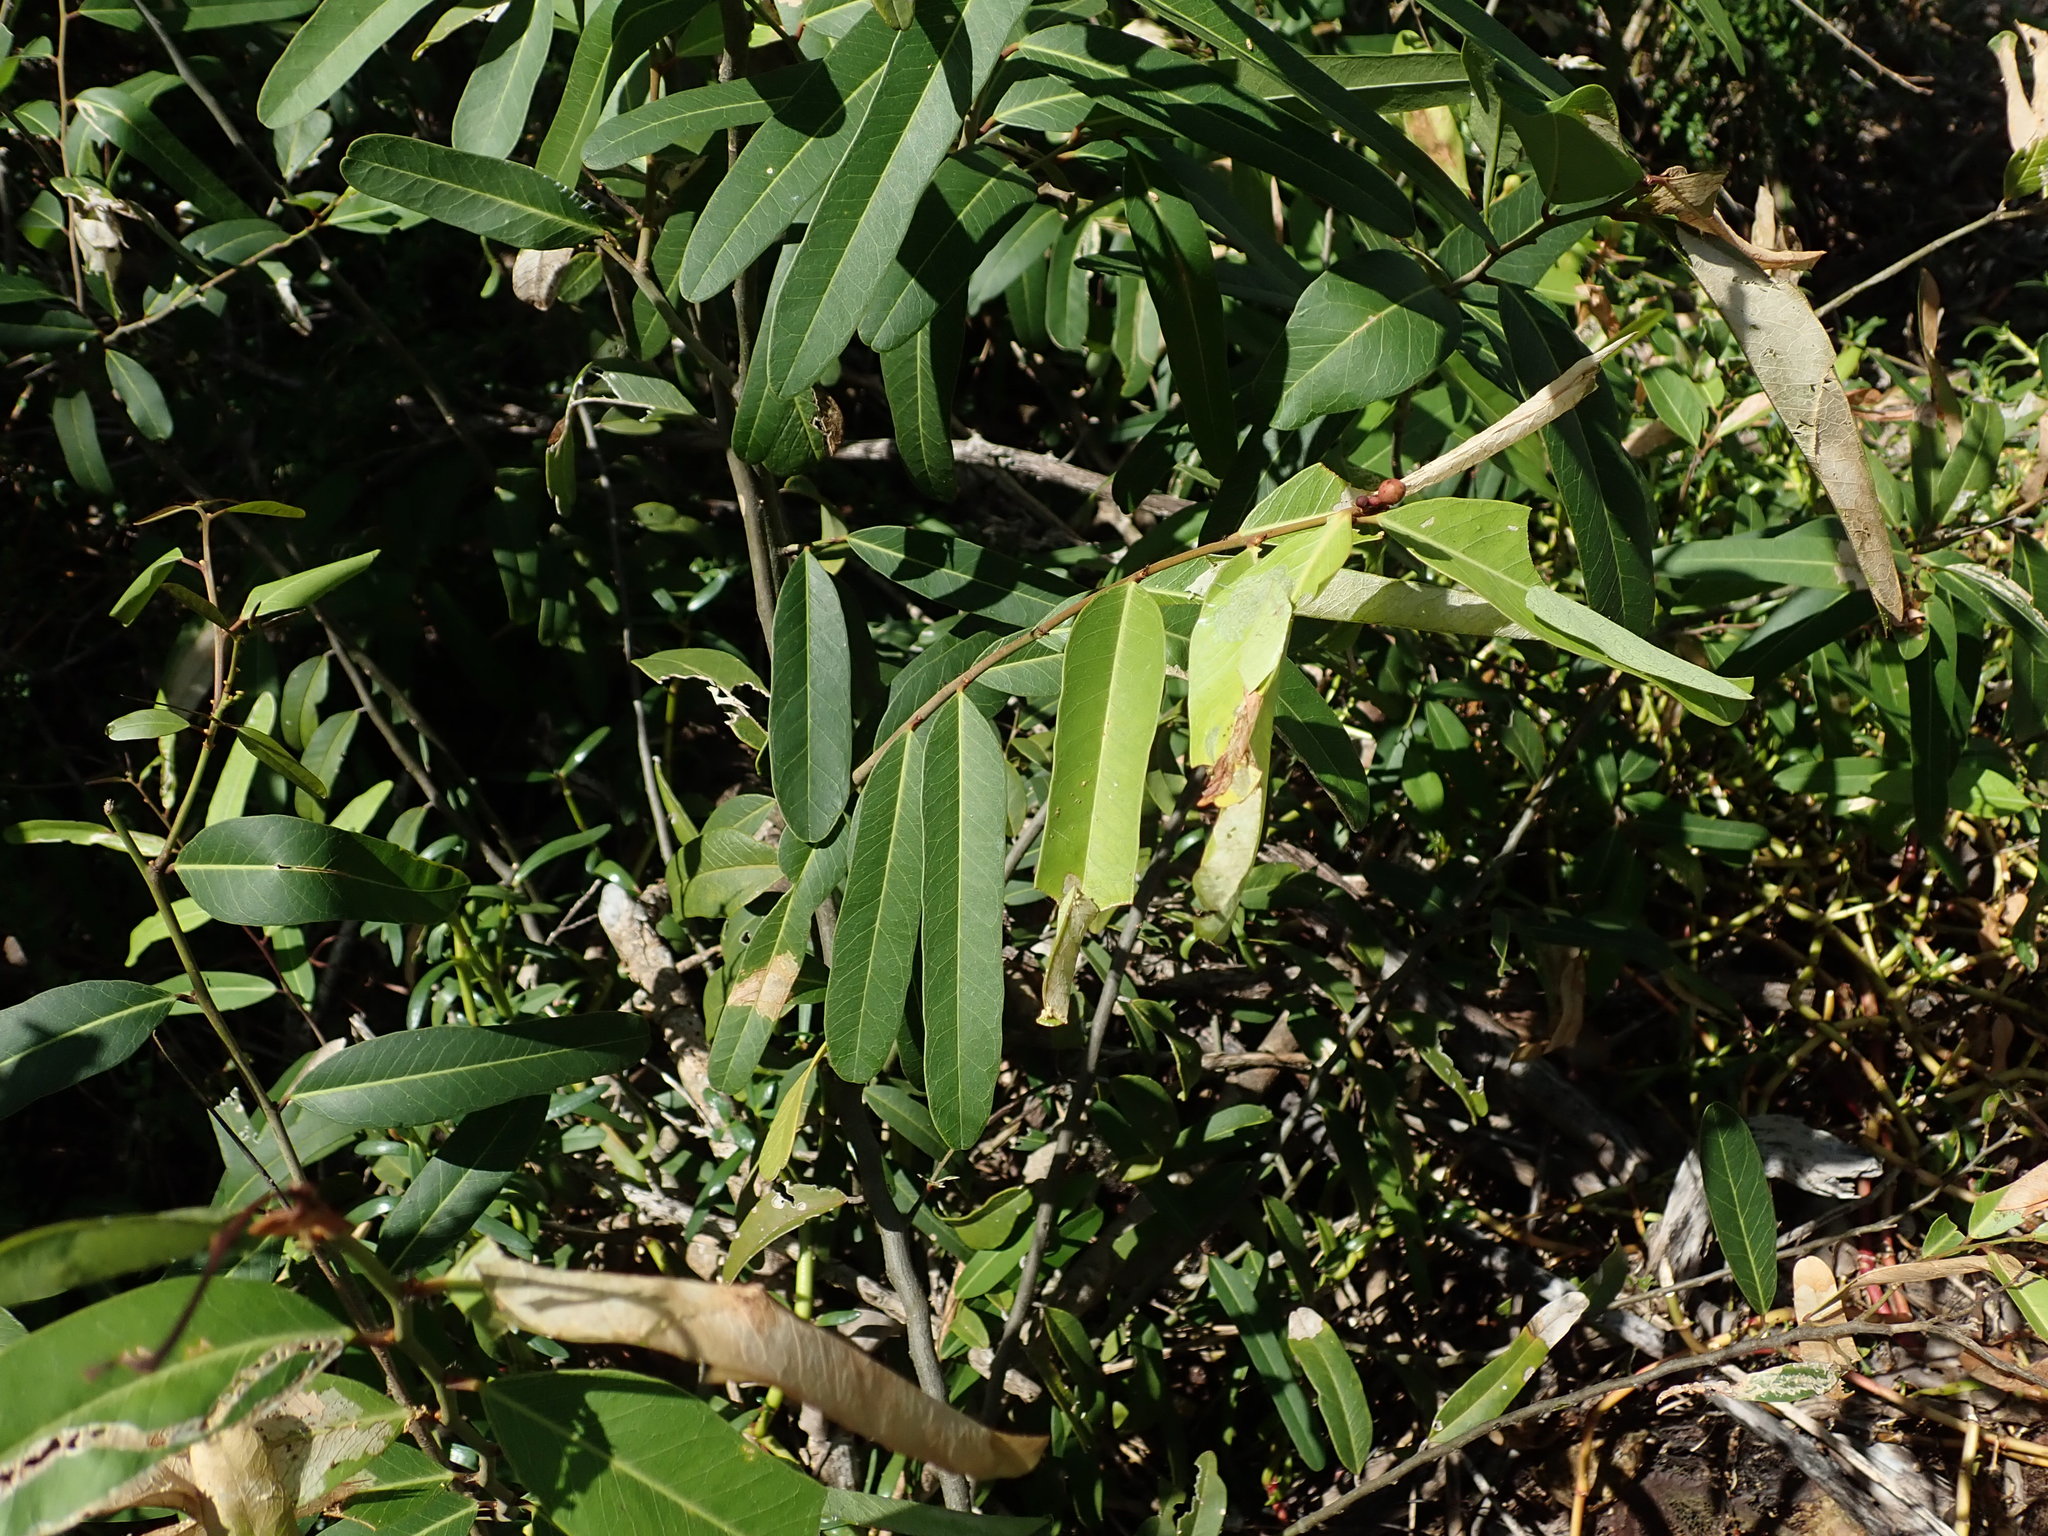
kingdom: Plantae
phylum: Tracheophyta
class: Magnoliopsida
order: Brassicales
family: Capparaceae
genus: Cynophalla
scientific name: Cynophalla flexuosa
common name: Capertree
